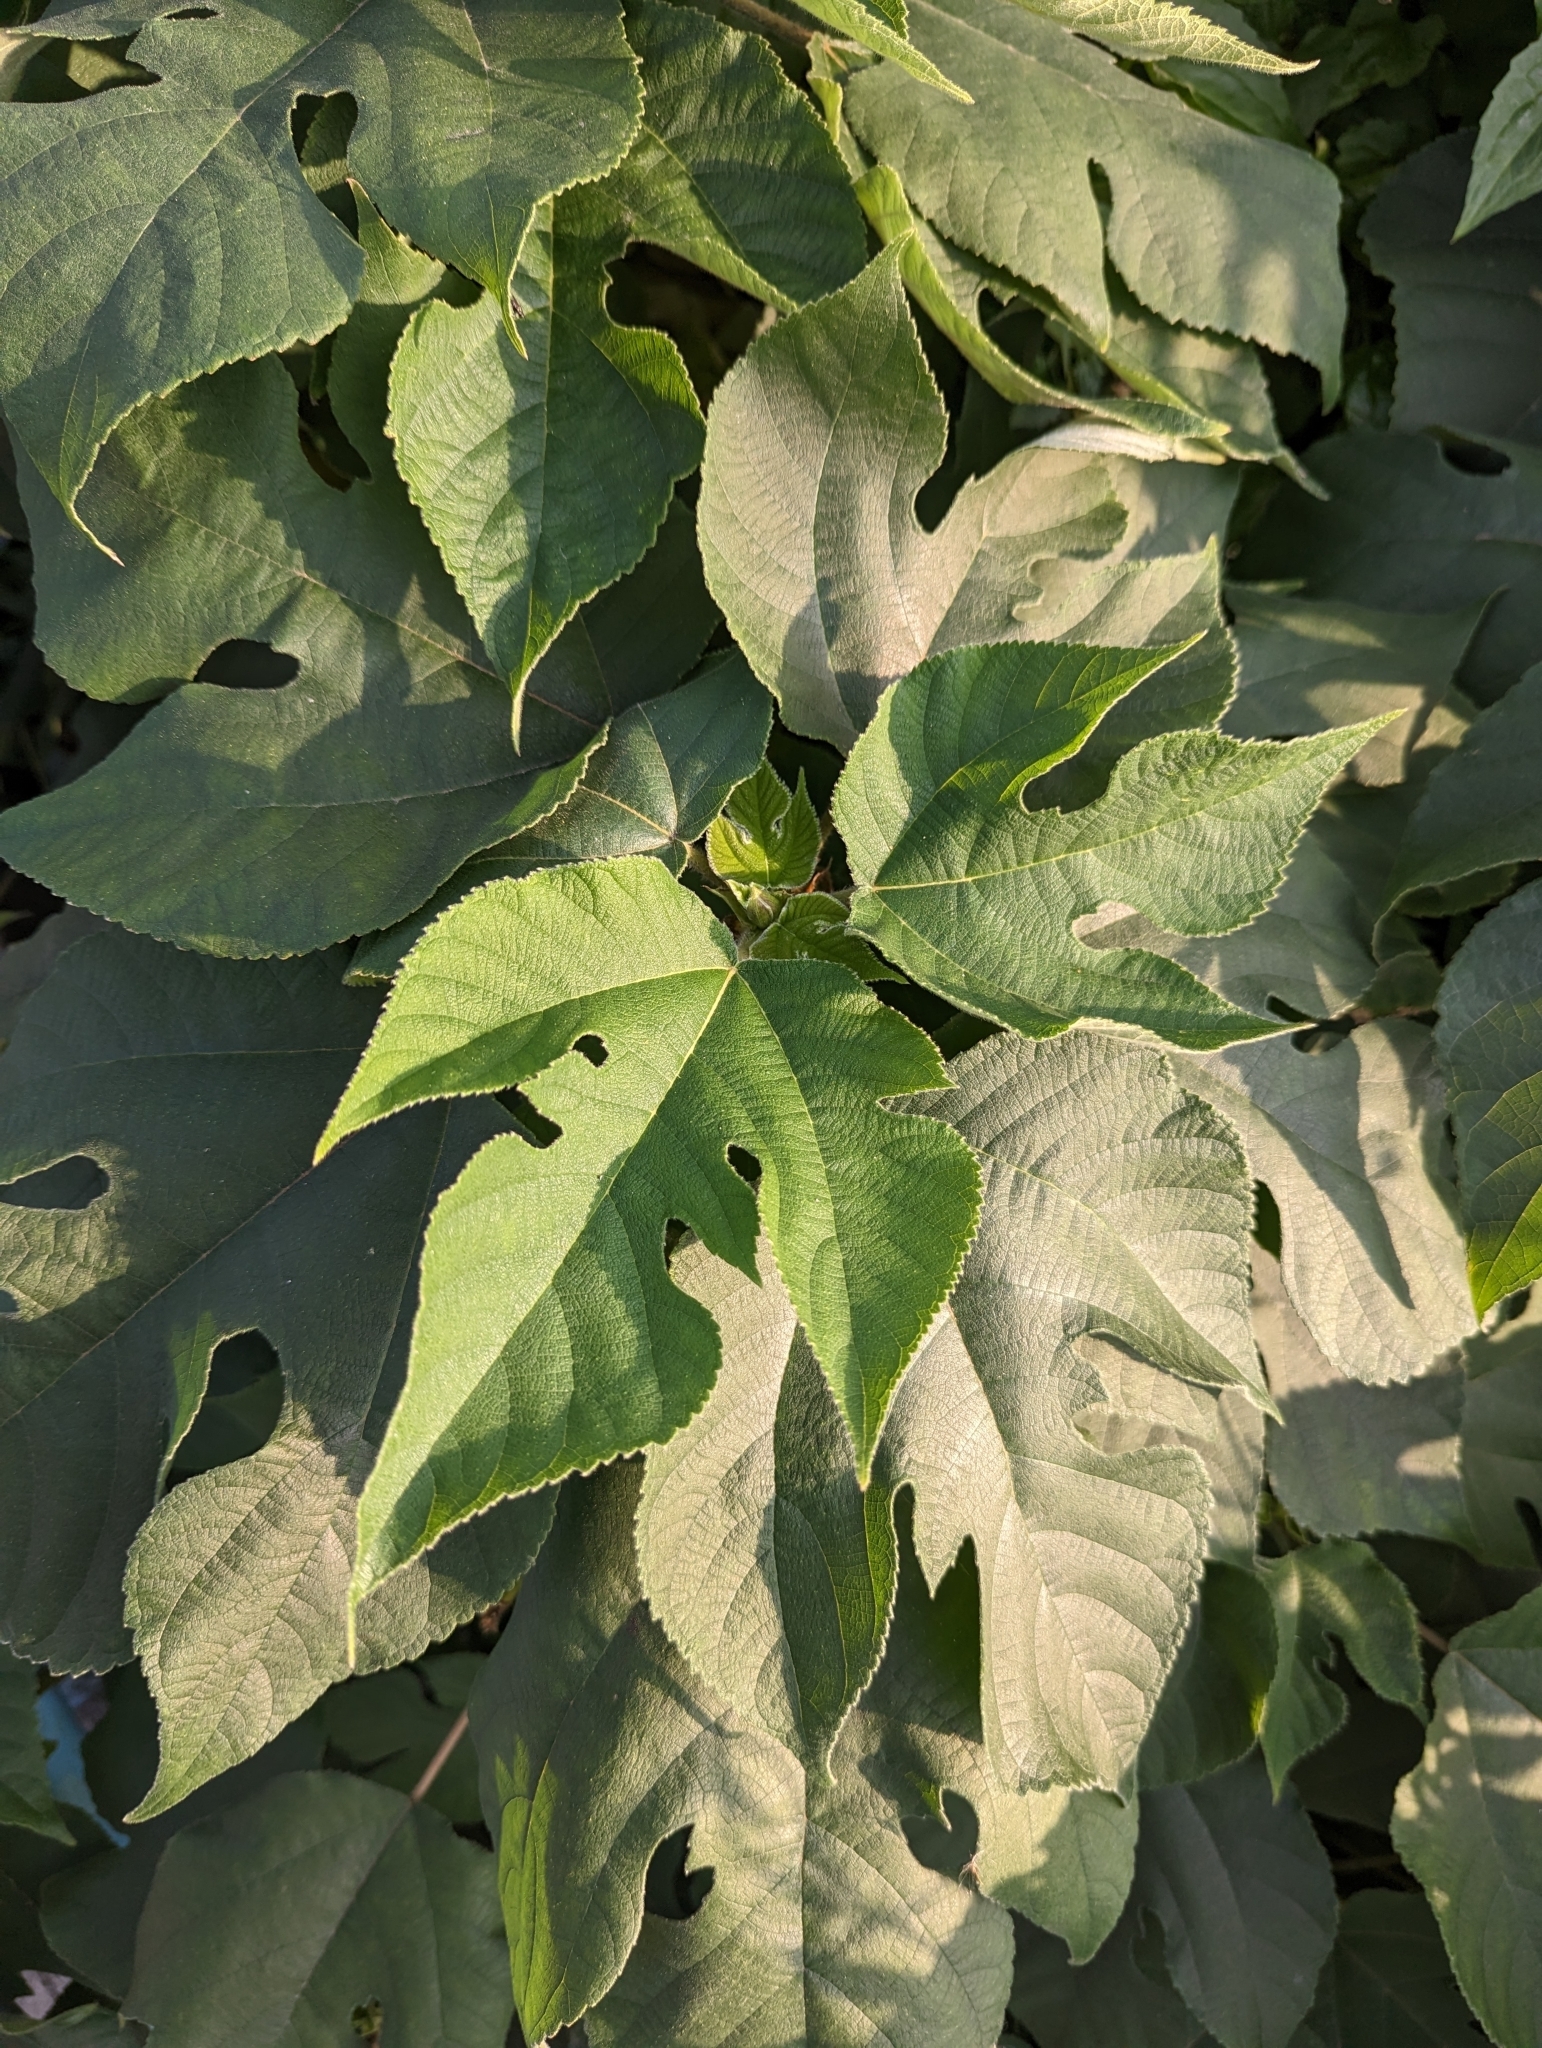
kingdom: Plantae
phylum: Tracheophyta
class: Magnoliopsida
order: Rosales
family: Moraceae
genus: Broussonetia
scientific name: Broussonetia papyrifera
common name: Paper mulberry
